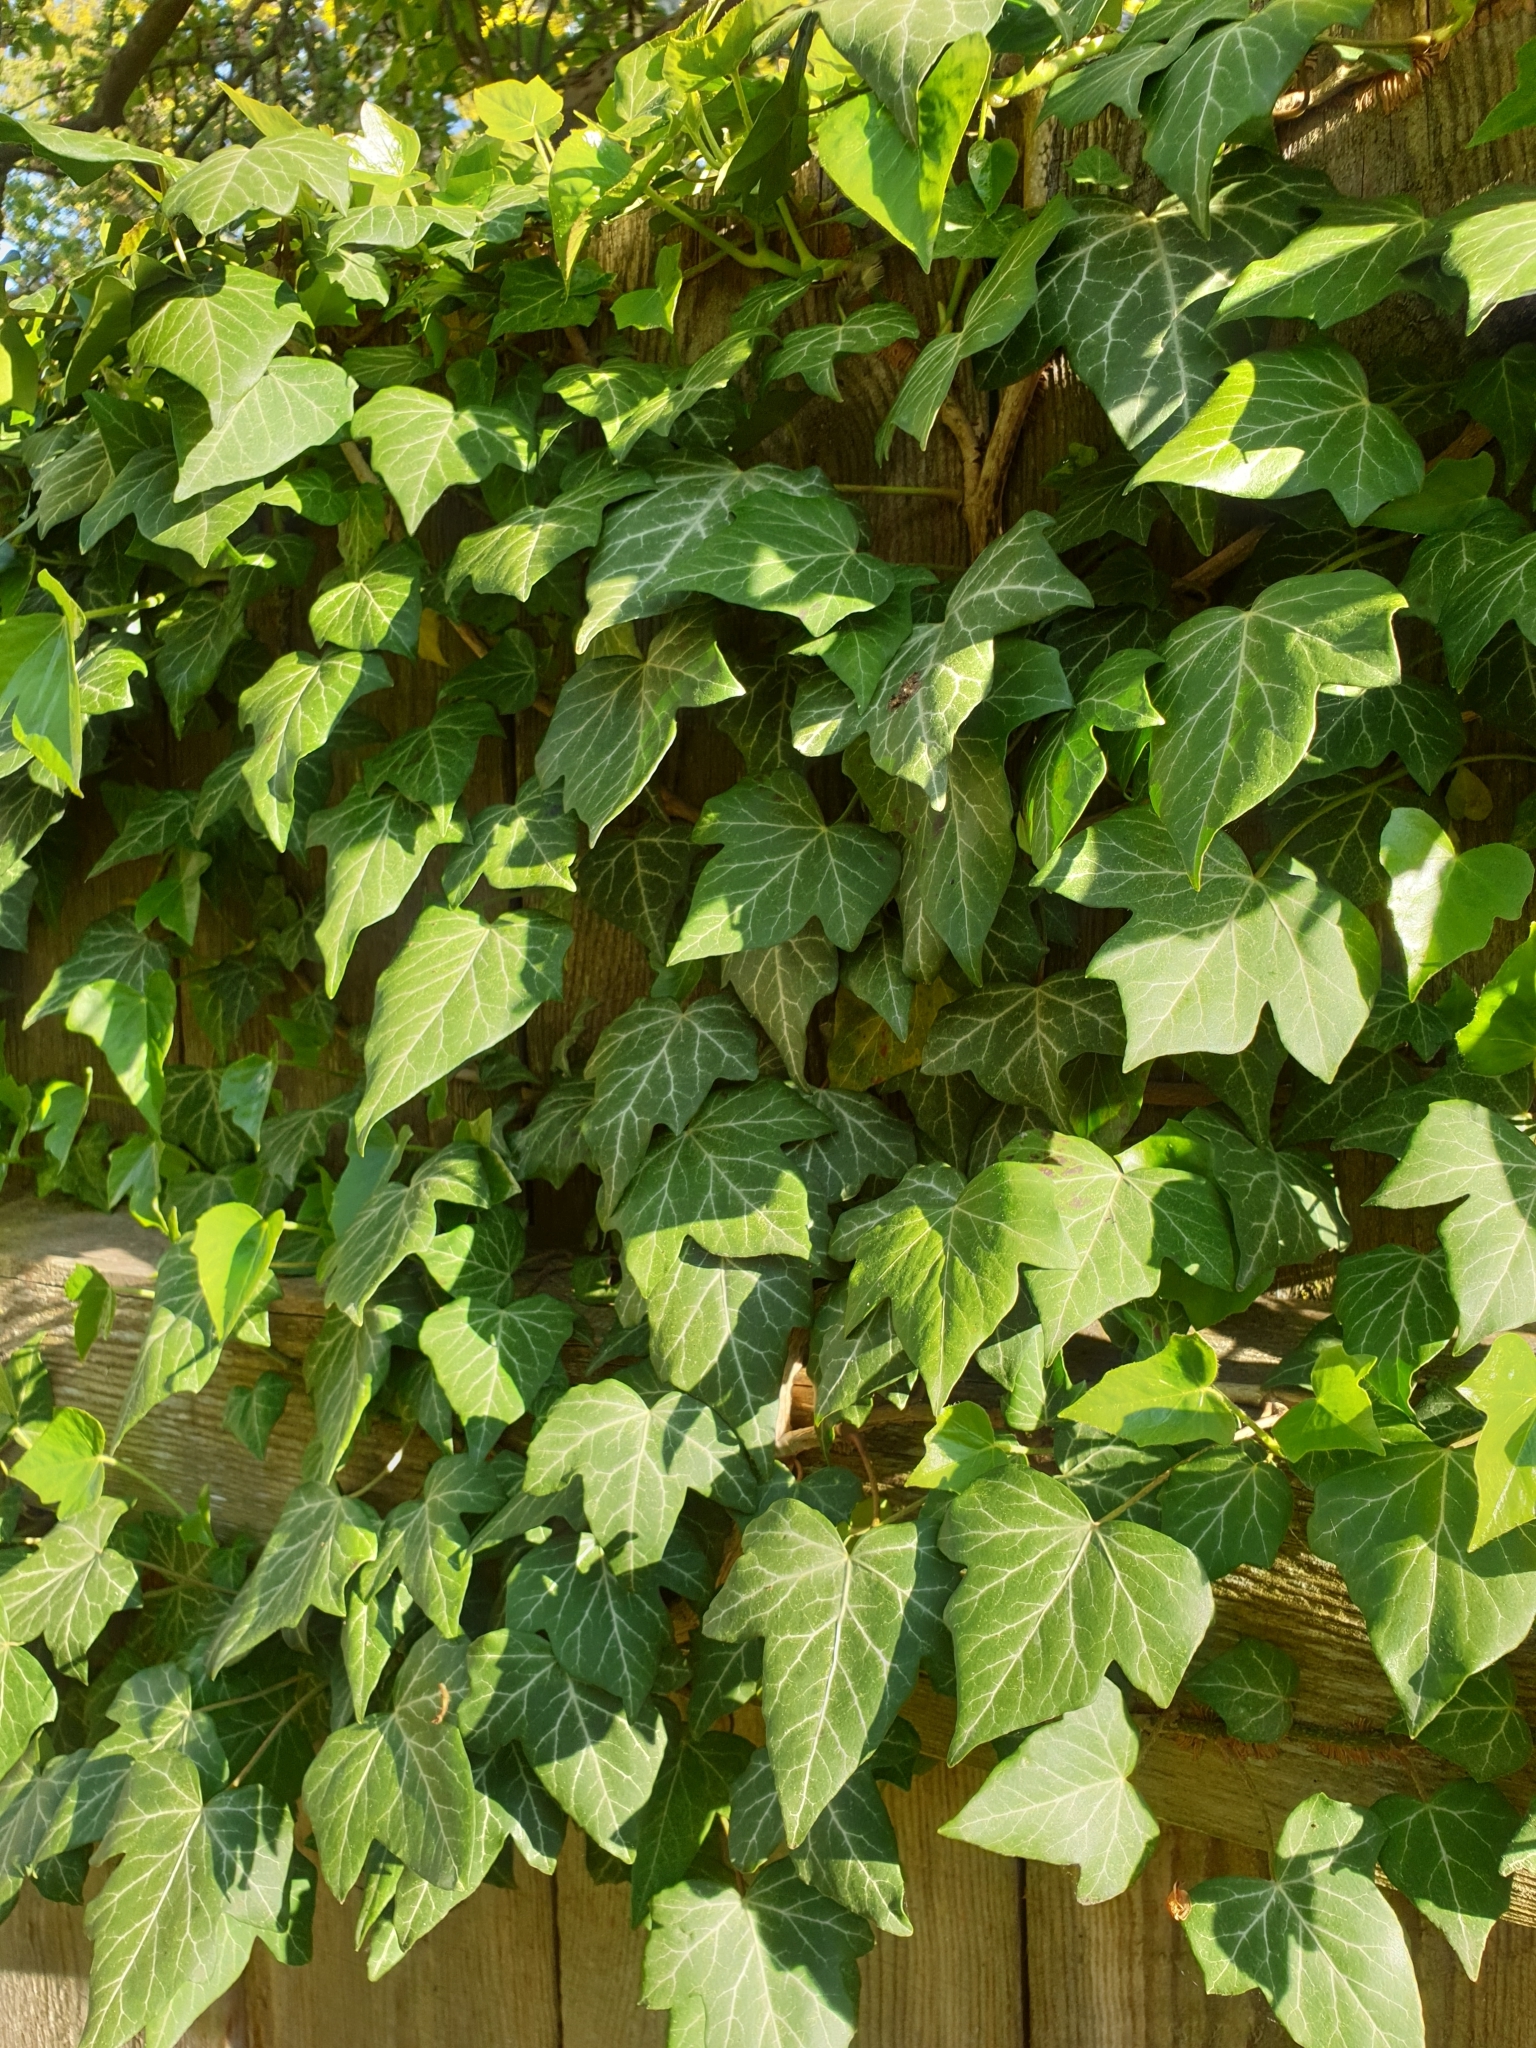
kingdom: Plantae
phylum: Tracheophyta
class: Magnoliopsida
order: Apiales
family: Araliaceae
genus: Hedera
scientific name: Hedera helix
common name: Ivy
